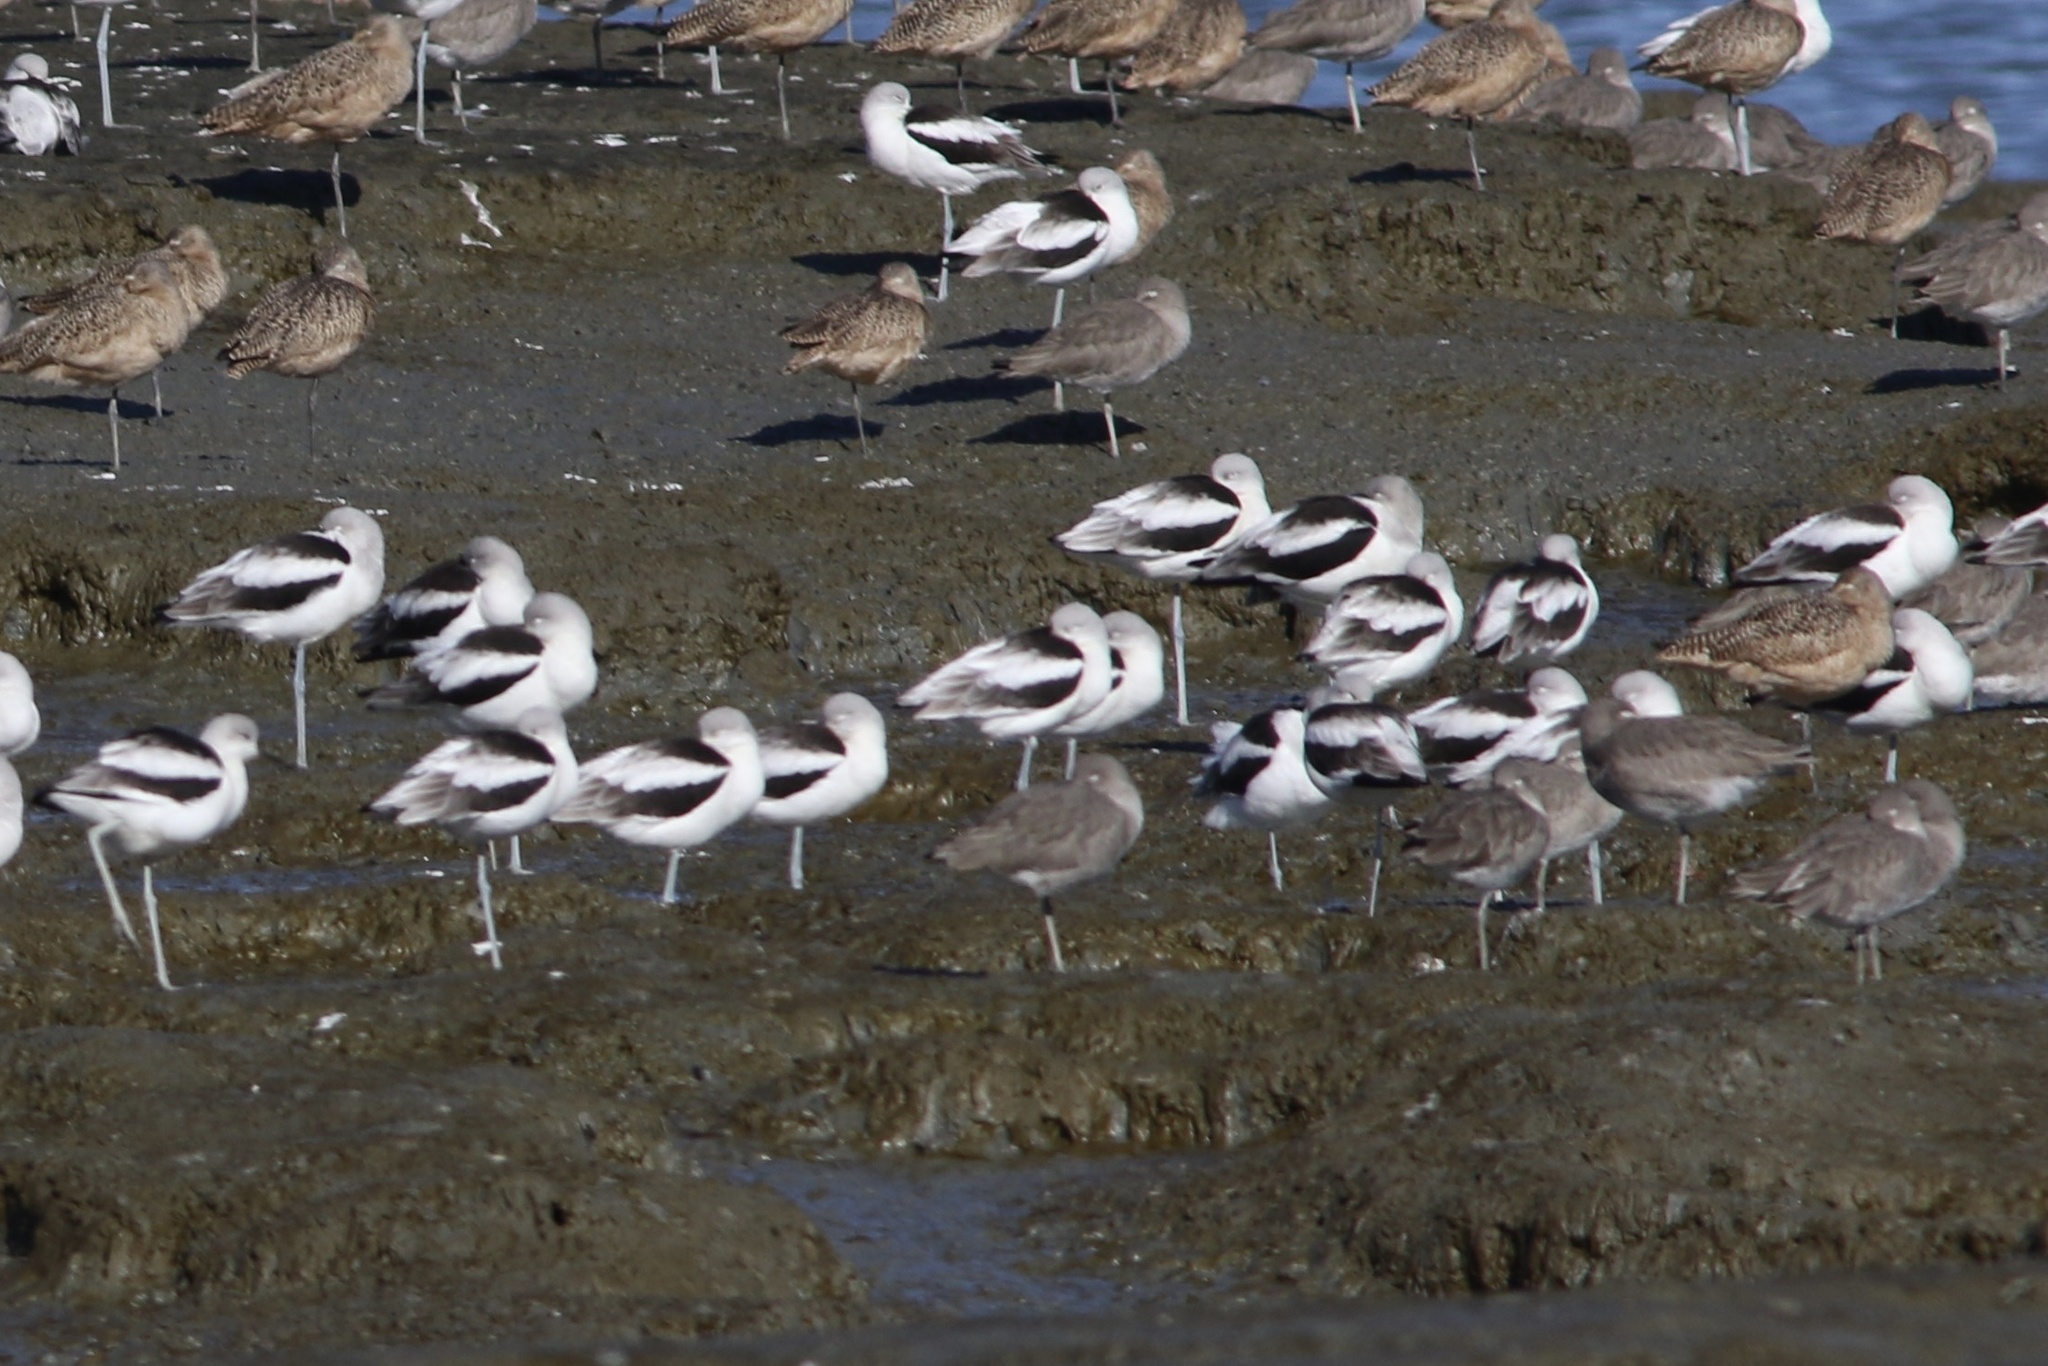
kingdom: Animalia
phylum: Chordata
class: Aves
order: Charadriiformes
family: Recurvirostridae
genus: Recurvirostra
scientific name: Recurvirostra americana
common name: American avocet
